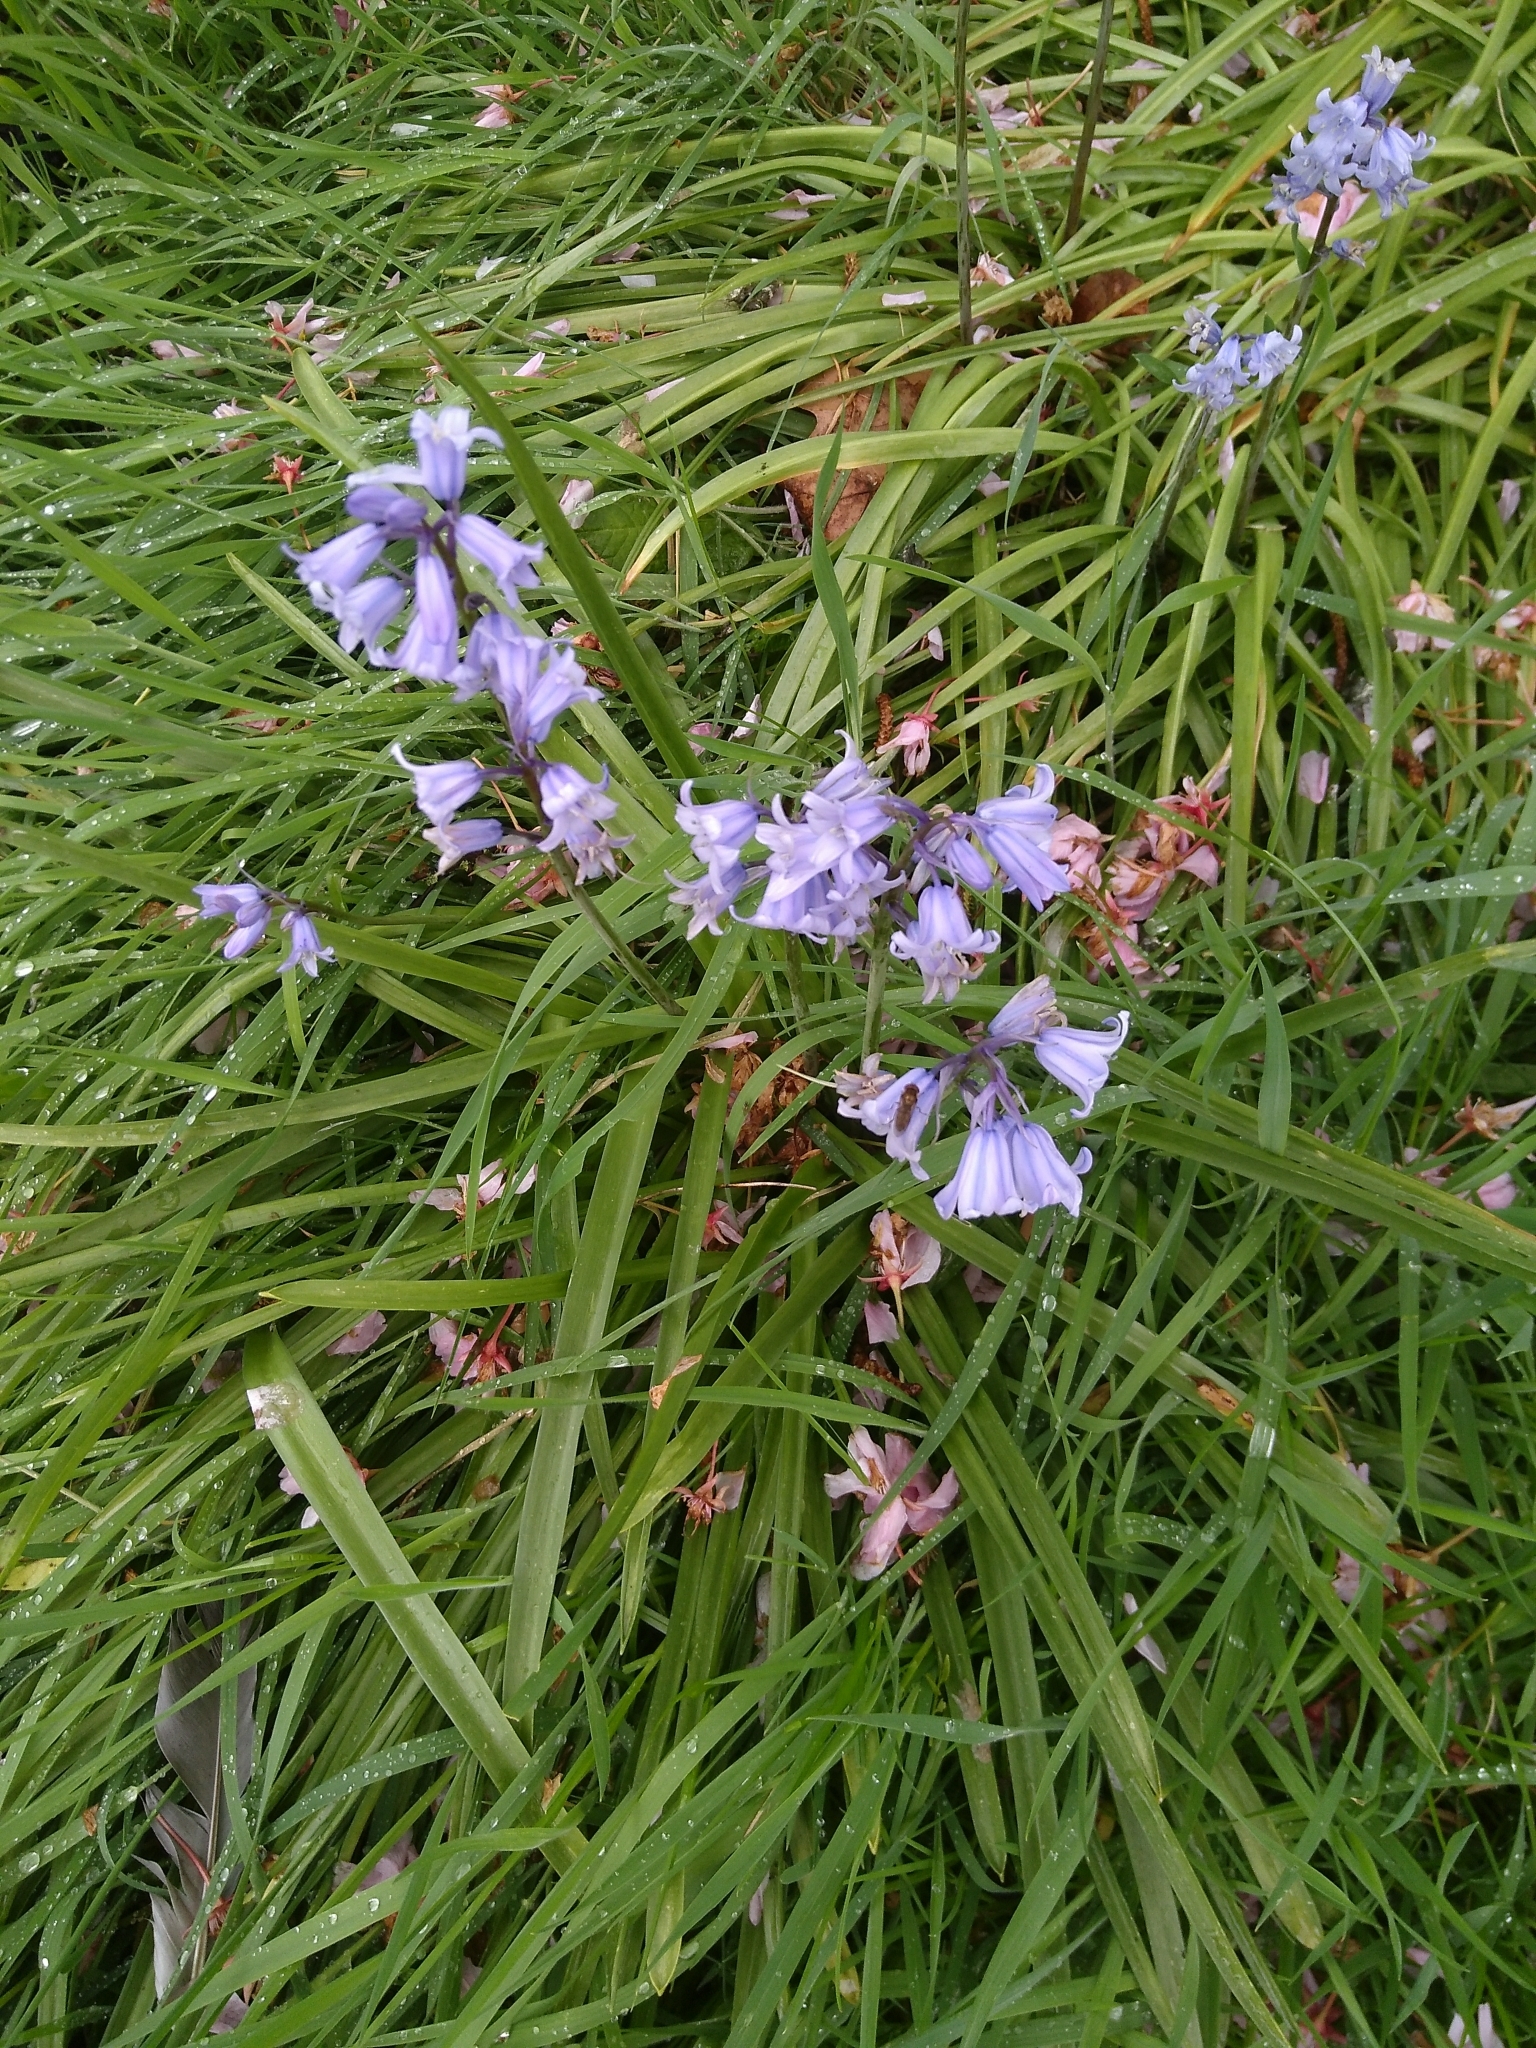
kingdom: Plantae
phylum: Tracheophyta
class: Liliopsida
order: Asparagales
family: Asparagaceae
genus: Hyacinthoides
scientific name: Hyacinthoides hispanica
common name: Spanish bluebell
